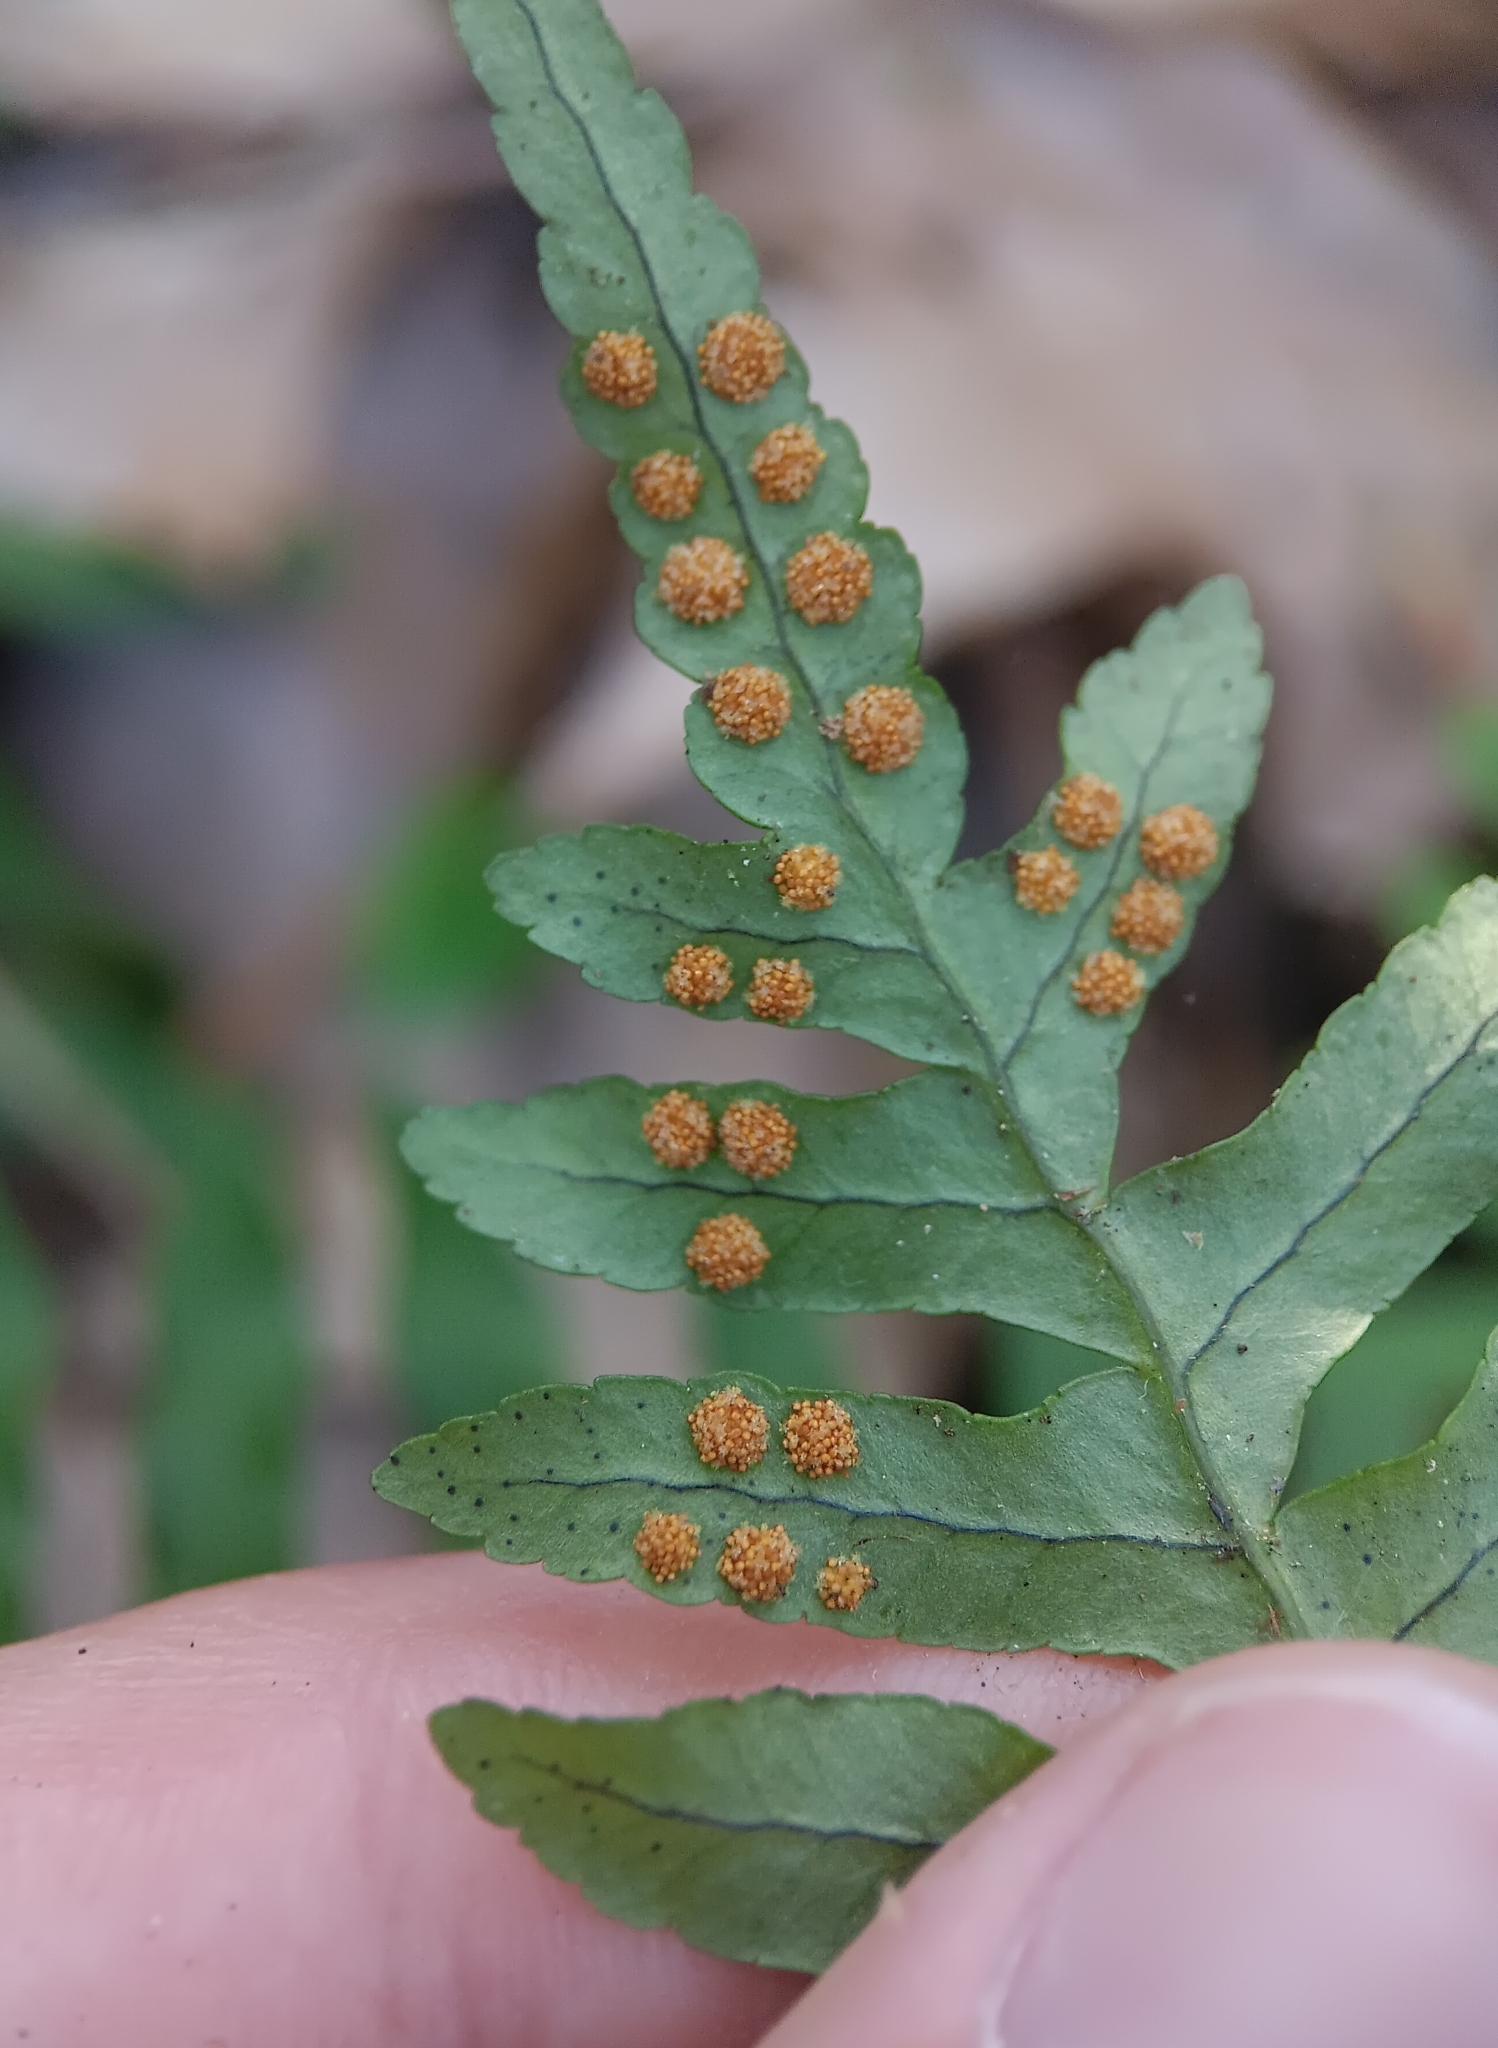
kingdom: Plantae
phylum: Tracheophyta
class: Polypodiopsida
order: Polypodiales
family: Polypodiaceae
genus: Polypodium
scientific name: Polypodium virginianum
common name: American wall fern
